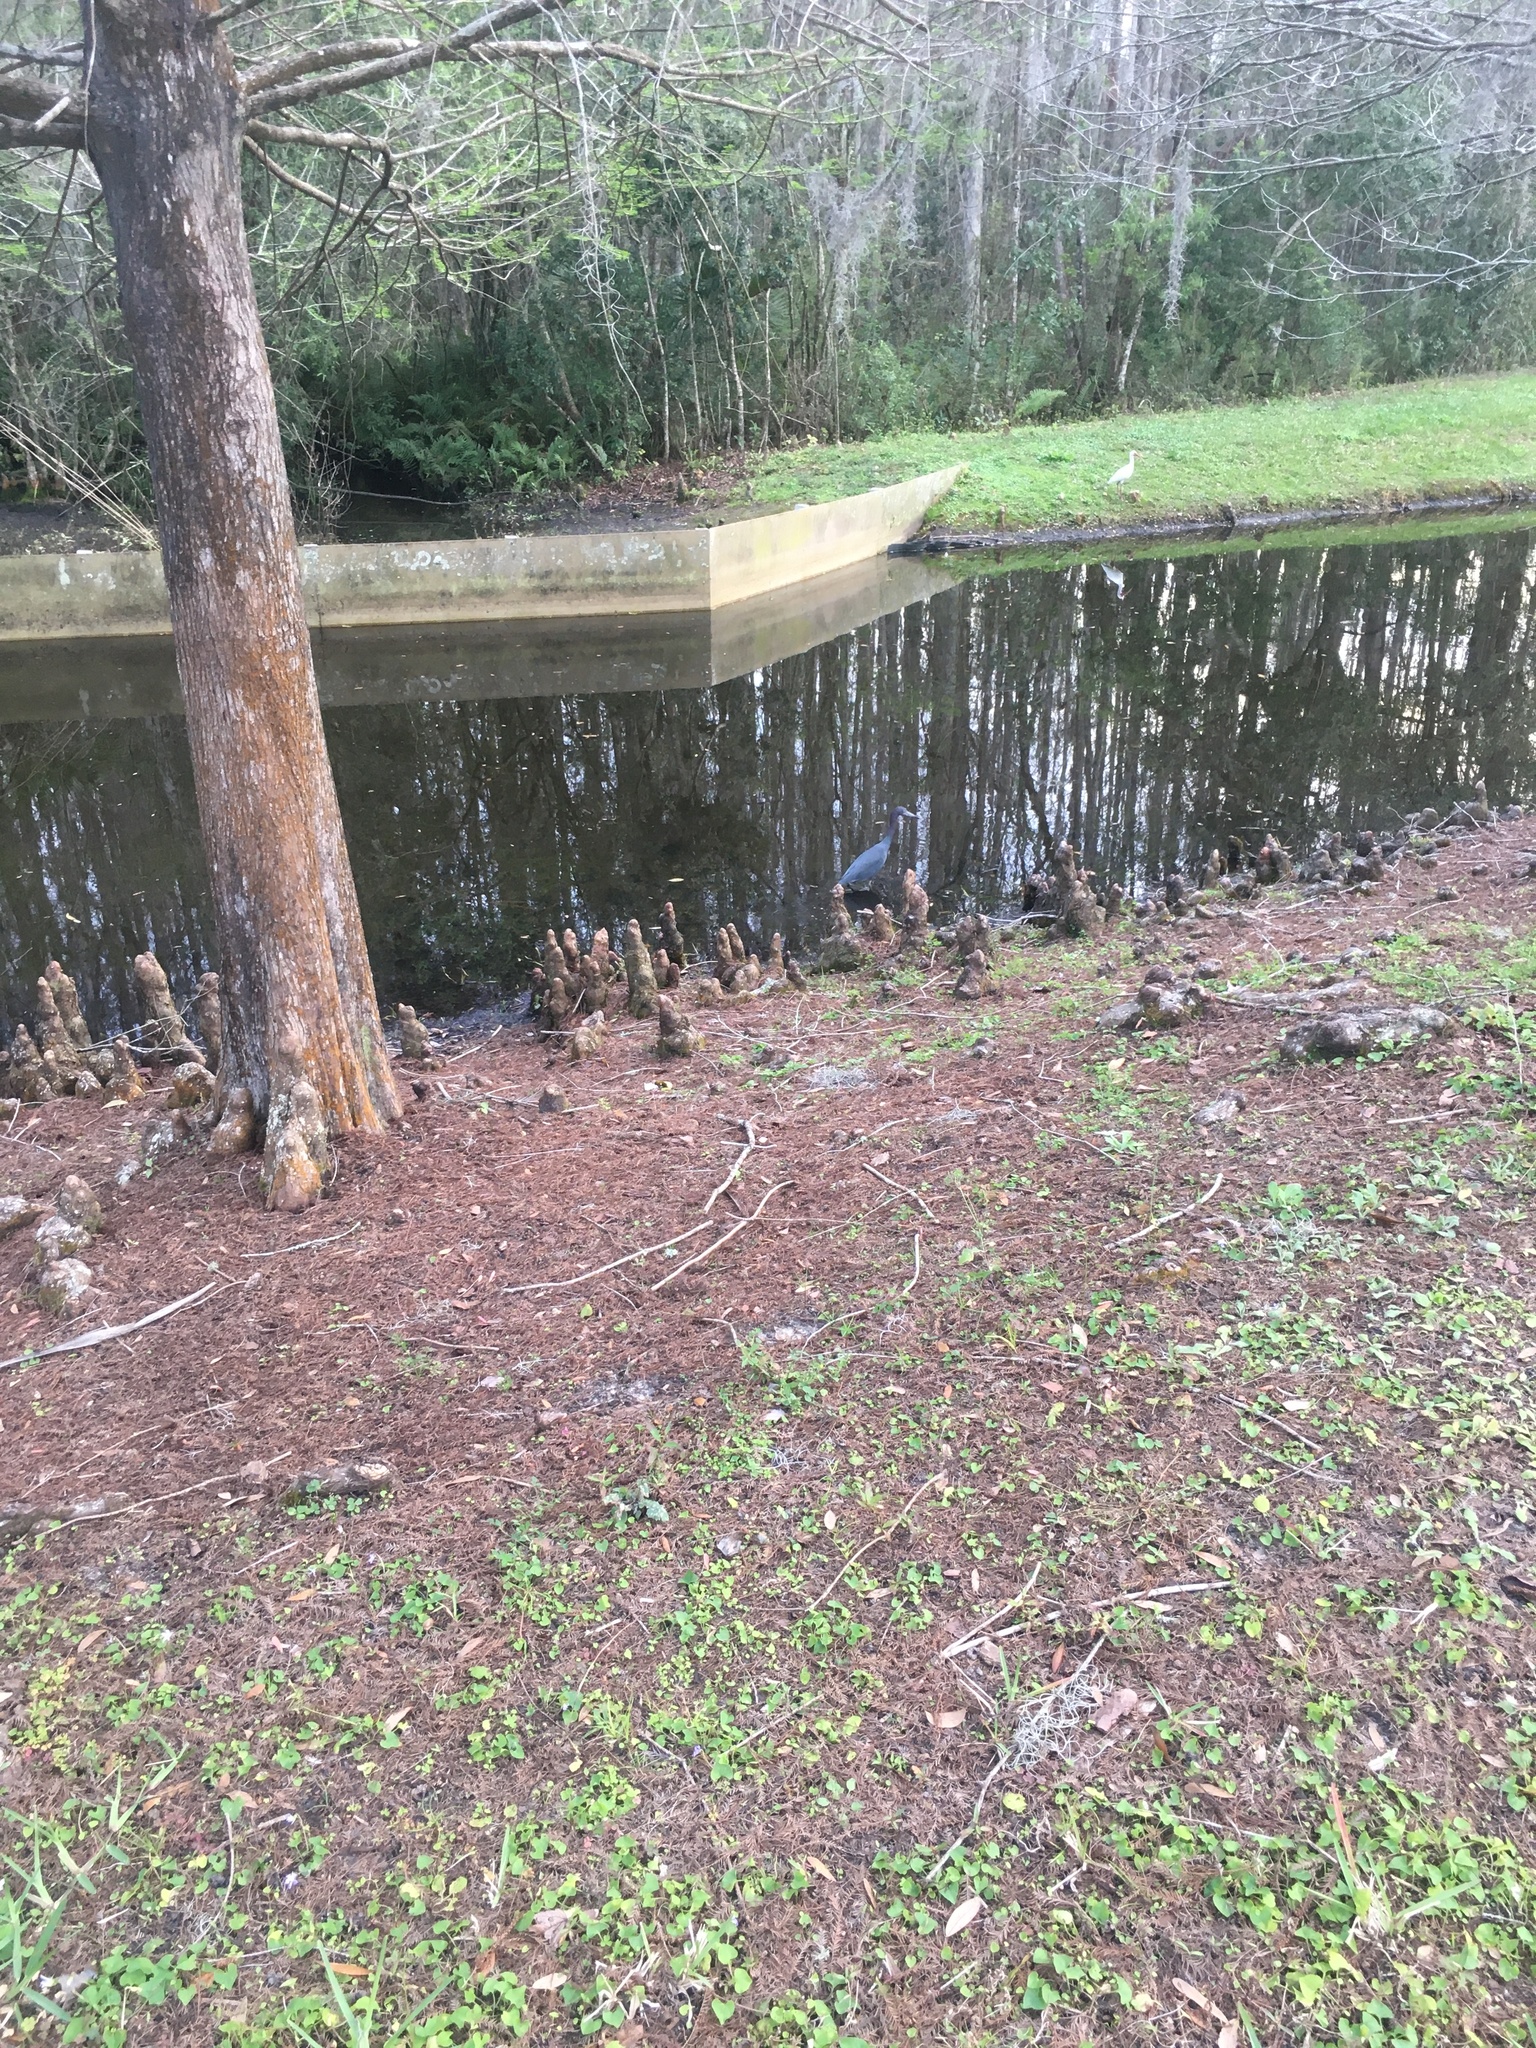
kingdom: Animalia
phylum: Chordata
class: Aves
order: Pelecaniformes
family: Ardeidae
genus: Egretta
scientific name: Egretta caerulea
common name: Little blue heron
